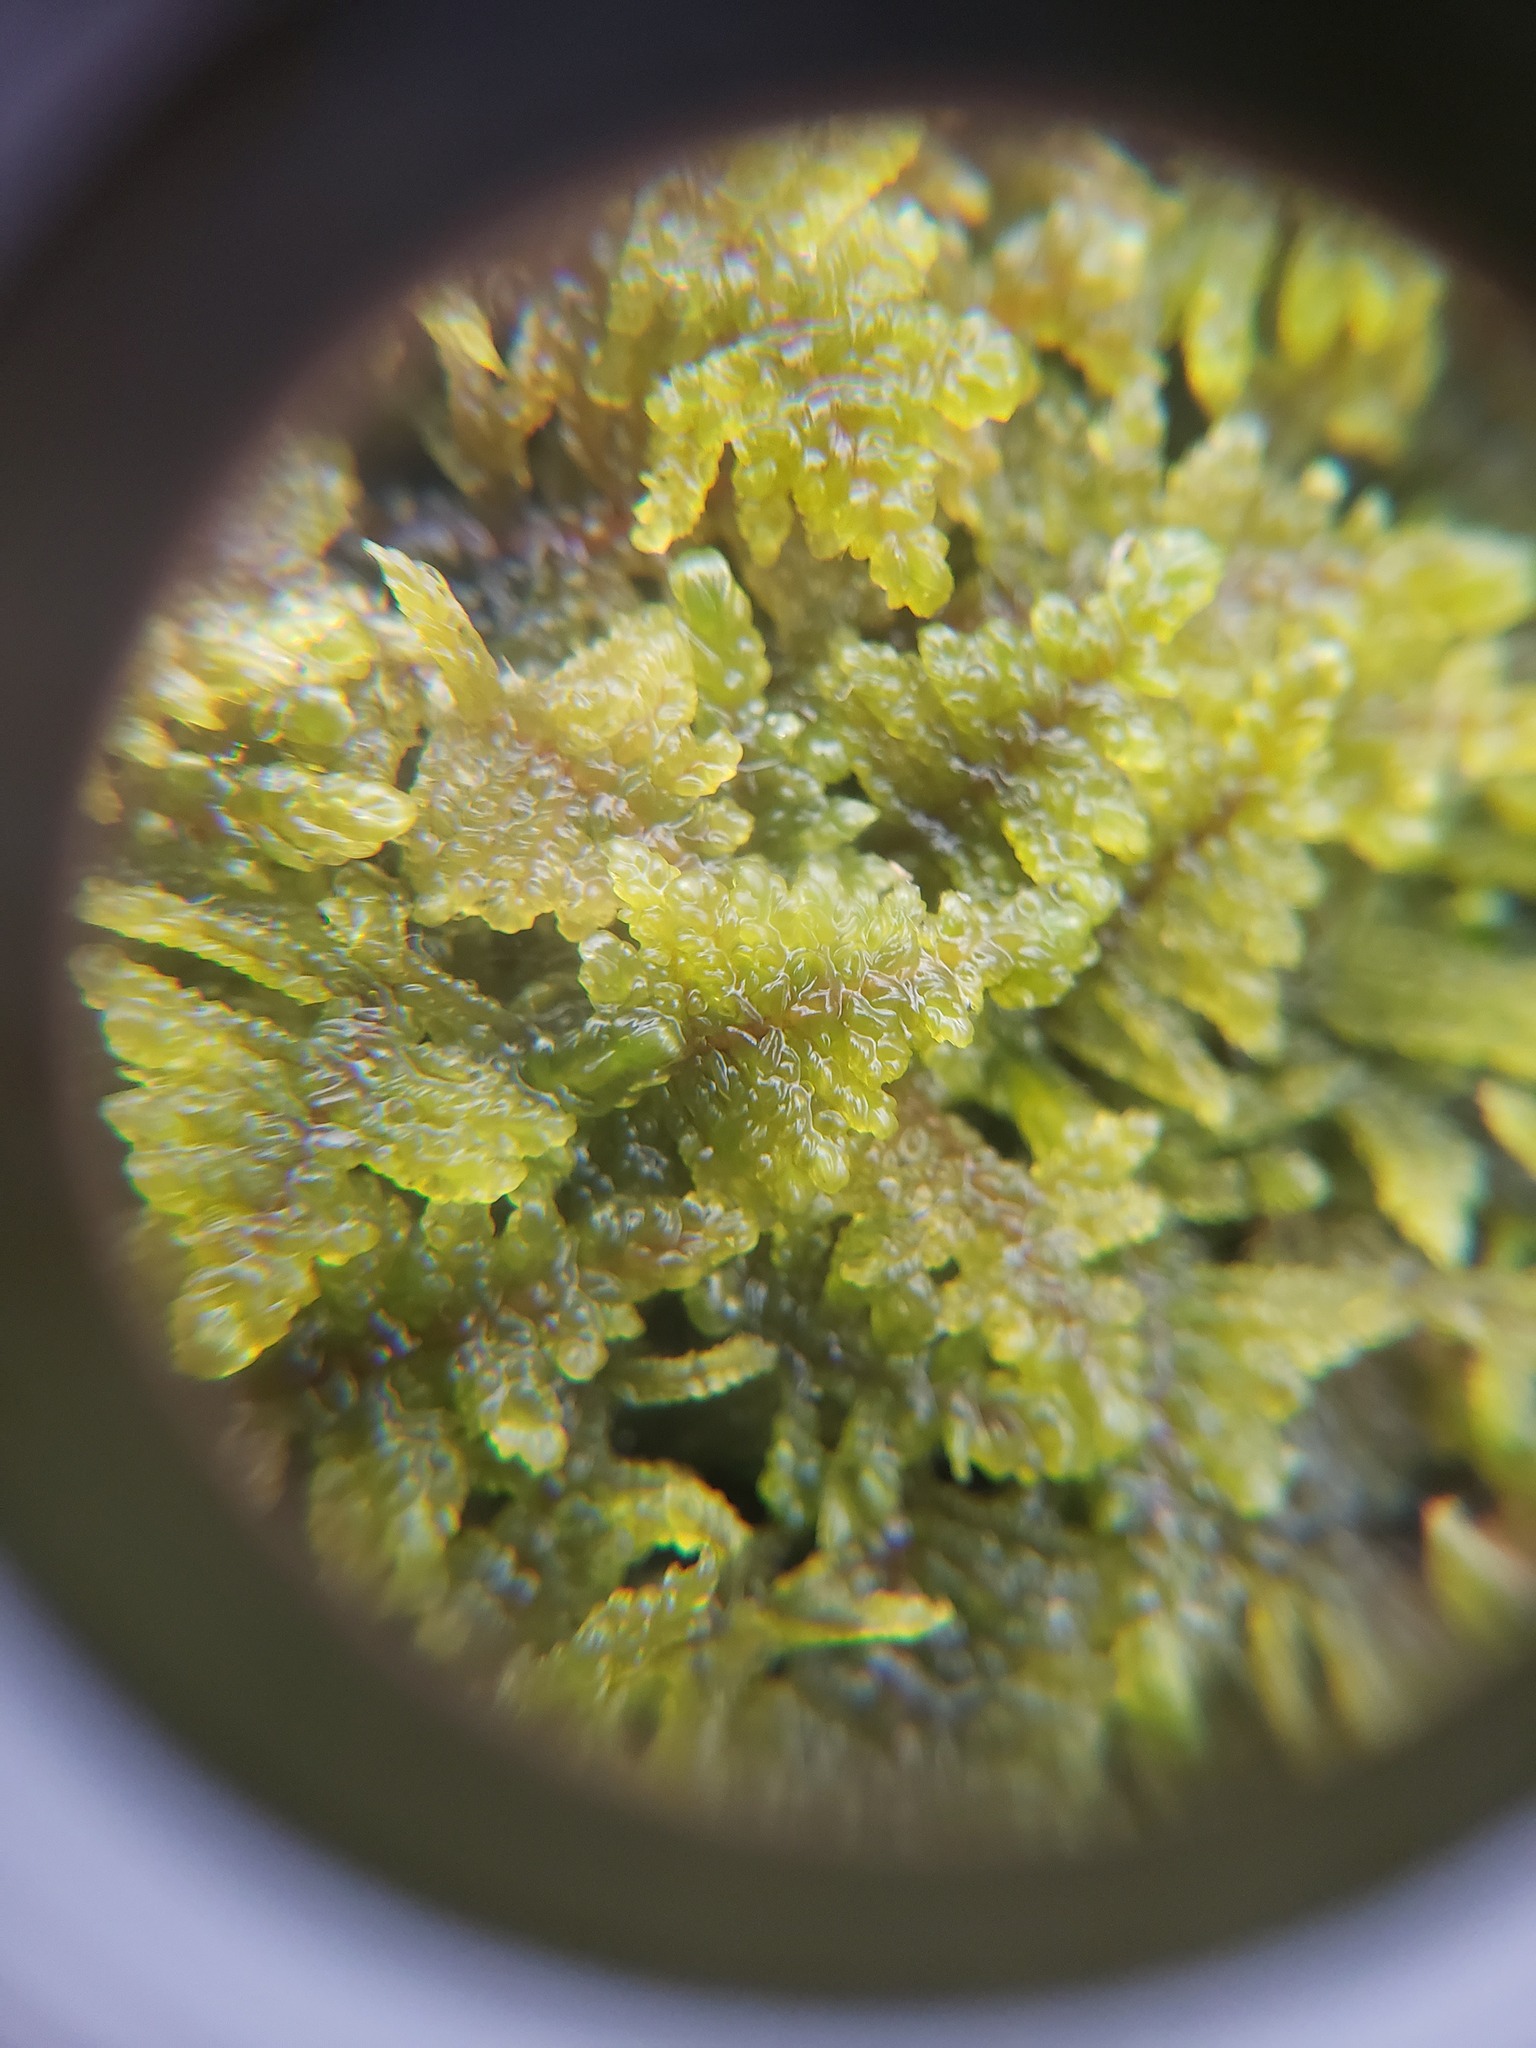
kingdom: Plantae
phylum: Bryophyta
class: Bryopsida
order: Hypnales
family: Callicladiaceae
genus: Callicladium
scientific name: Callicladium imponens
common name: Brocade moss
